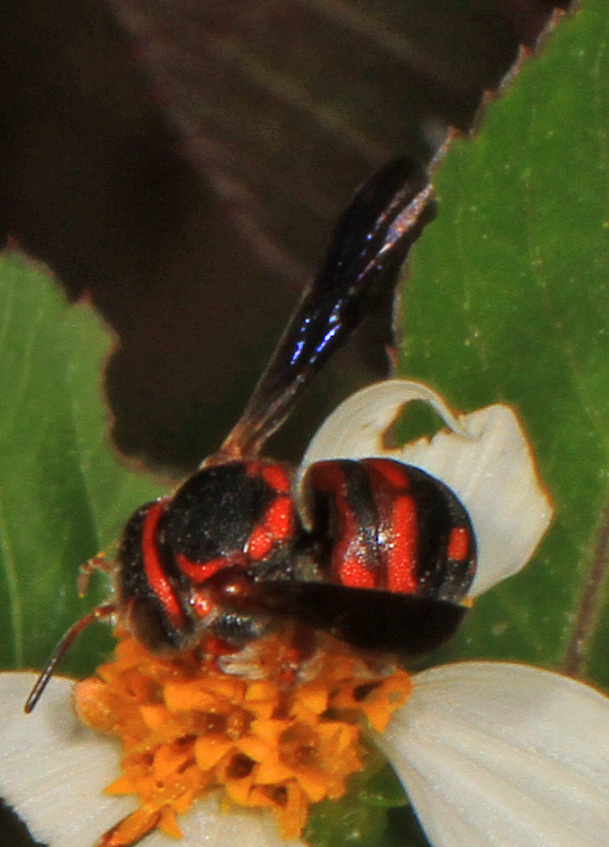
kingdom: Animalia
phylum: Arthropoda
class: Insecta
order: Hymenoptera
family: Megachilidae
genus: Anthidiellum
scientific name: Anthidiellum notatum
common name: Northern rotund-resin bee
